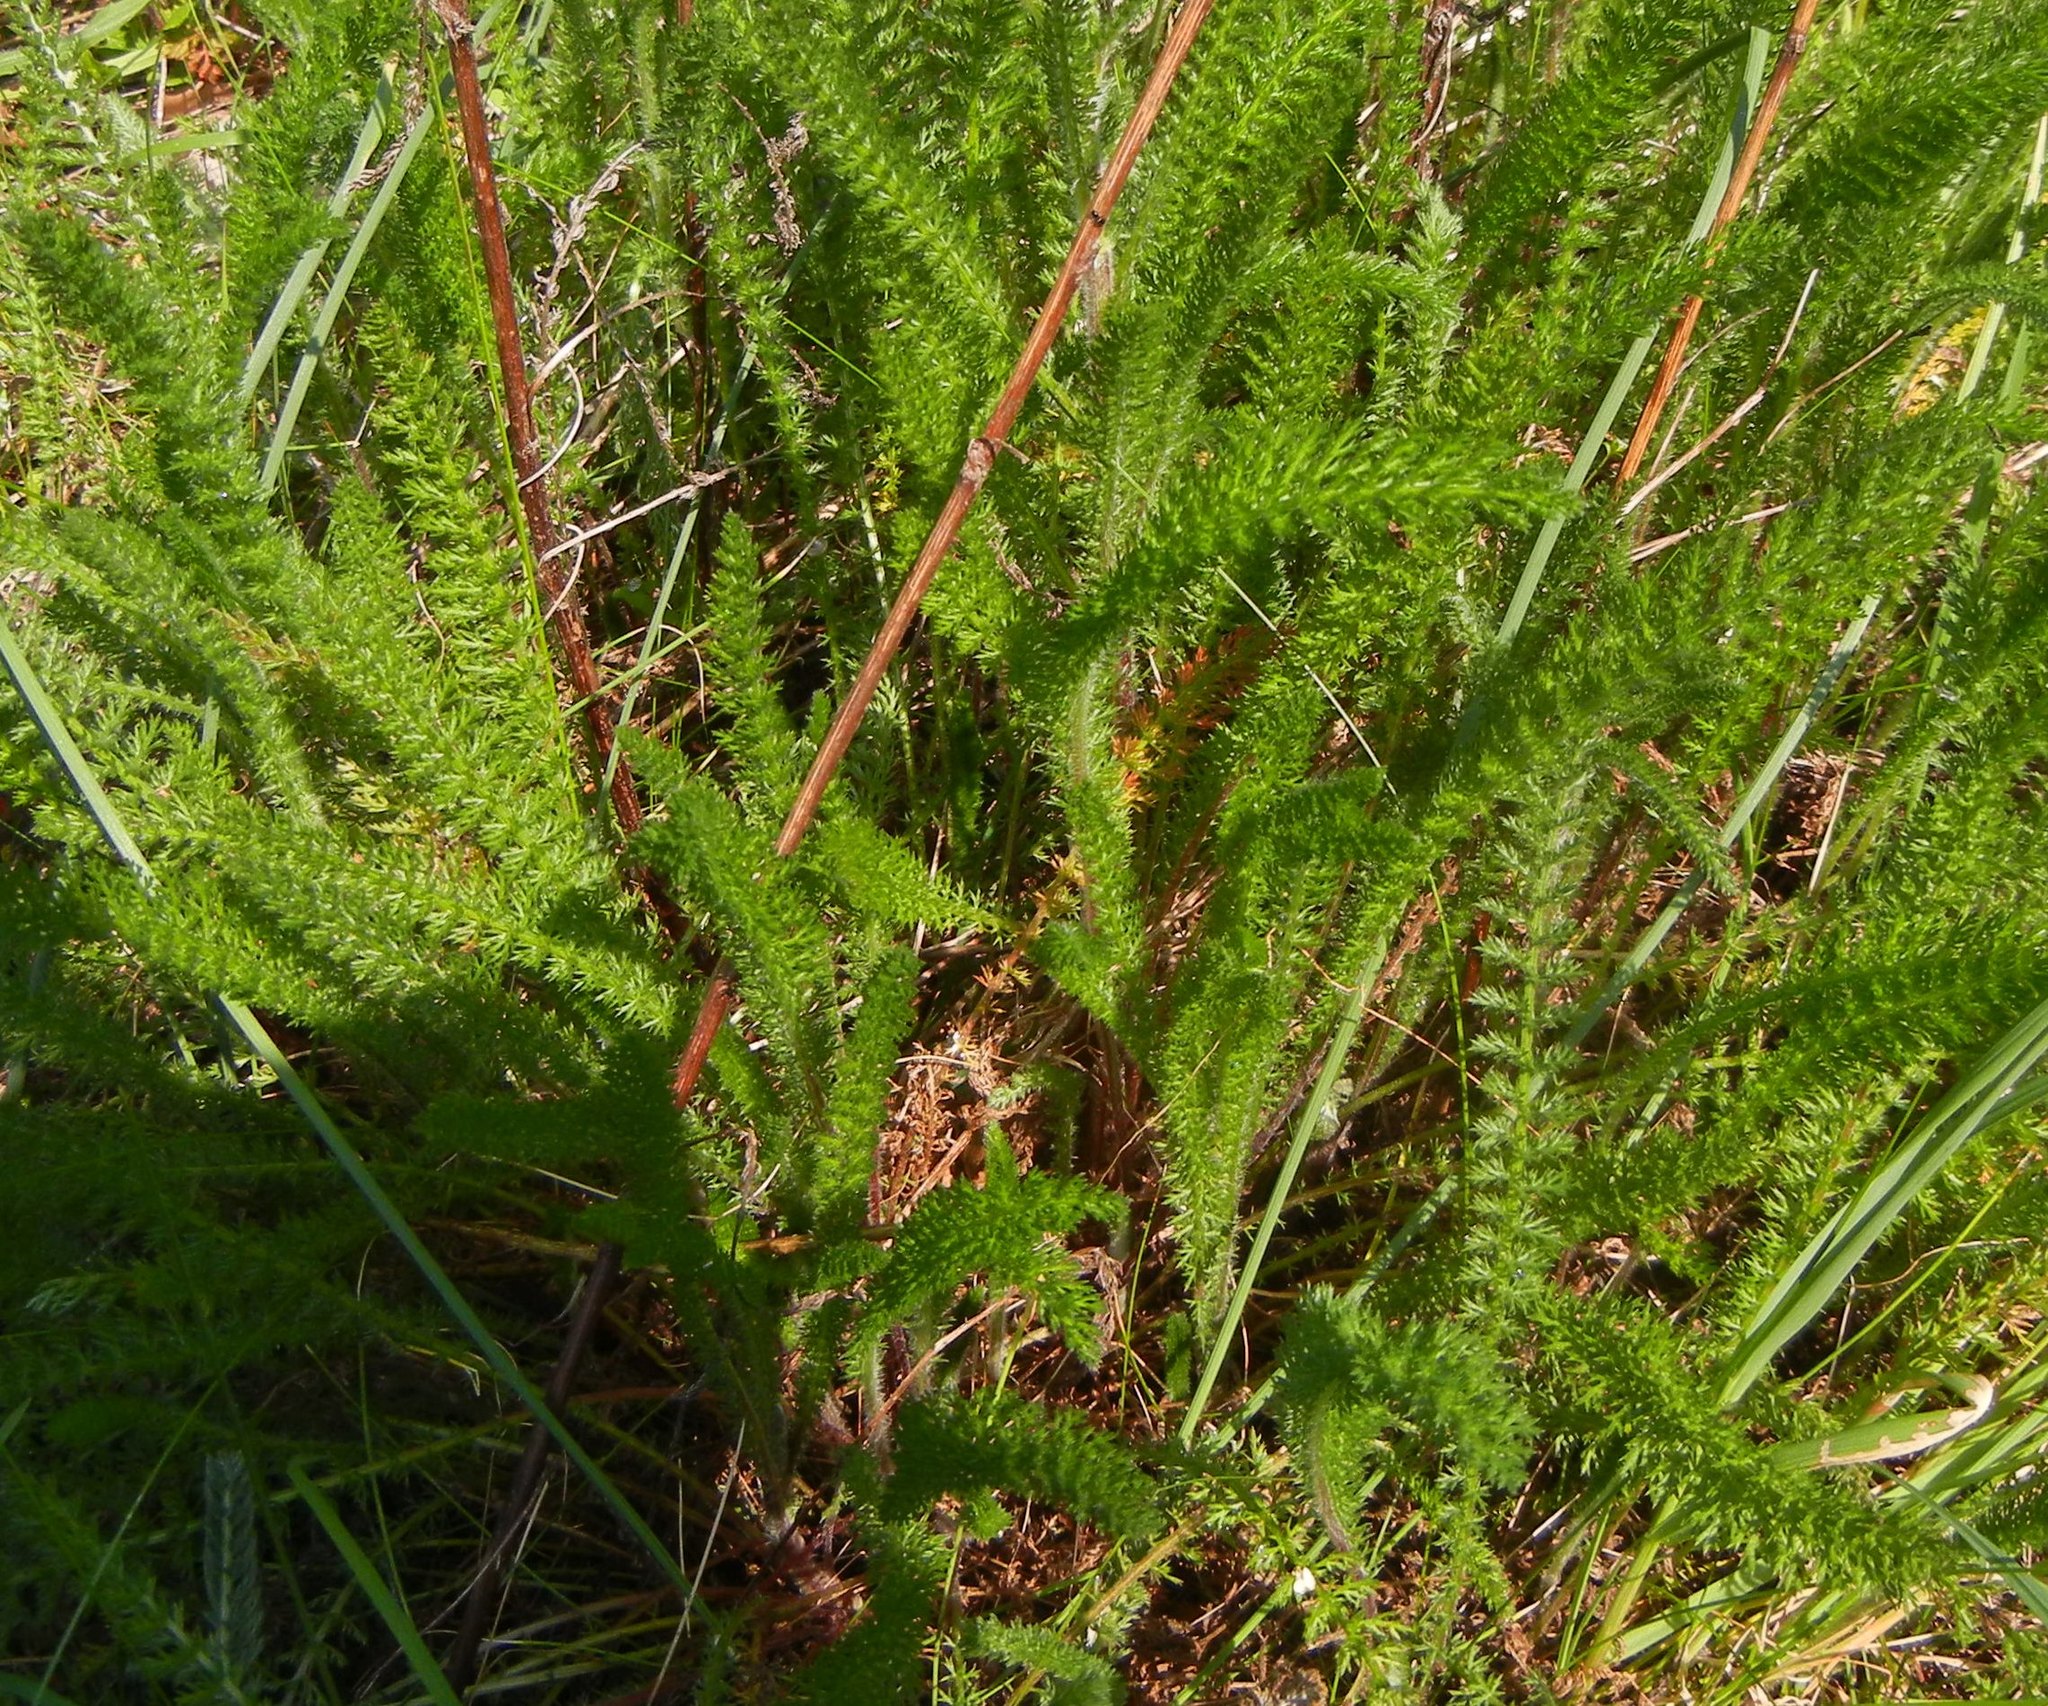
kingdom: Plantae
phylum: Tracheophyta
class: Magnoliopsida
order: Asterales
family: Asteraceae
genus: Achillea
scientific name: Achillea millefolium
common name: Yarrow
